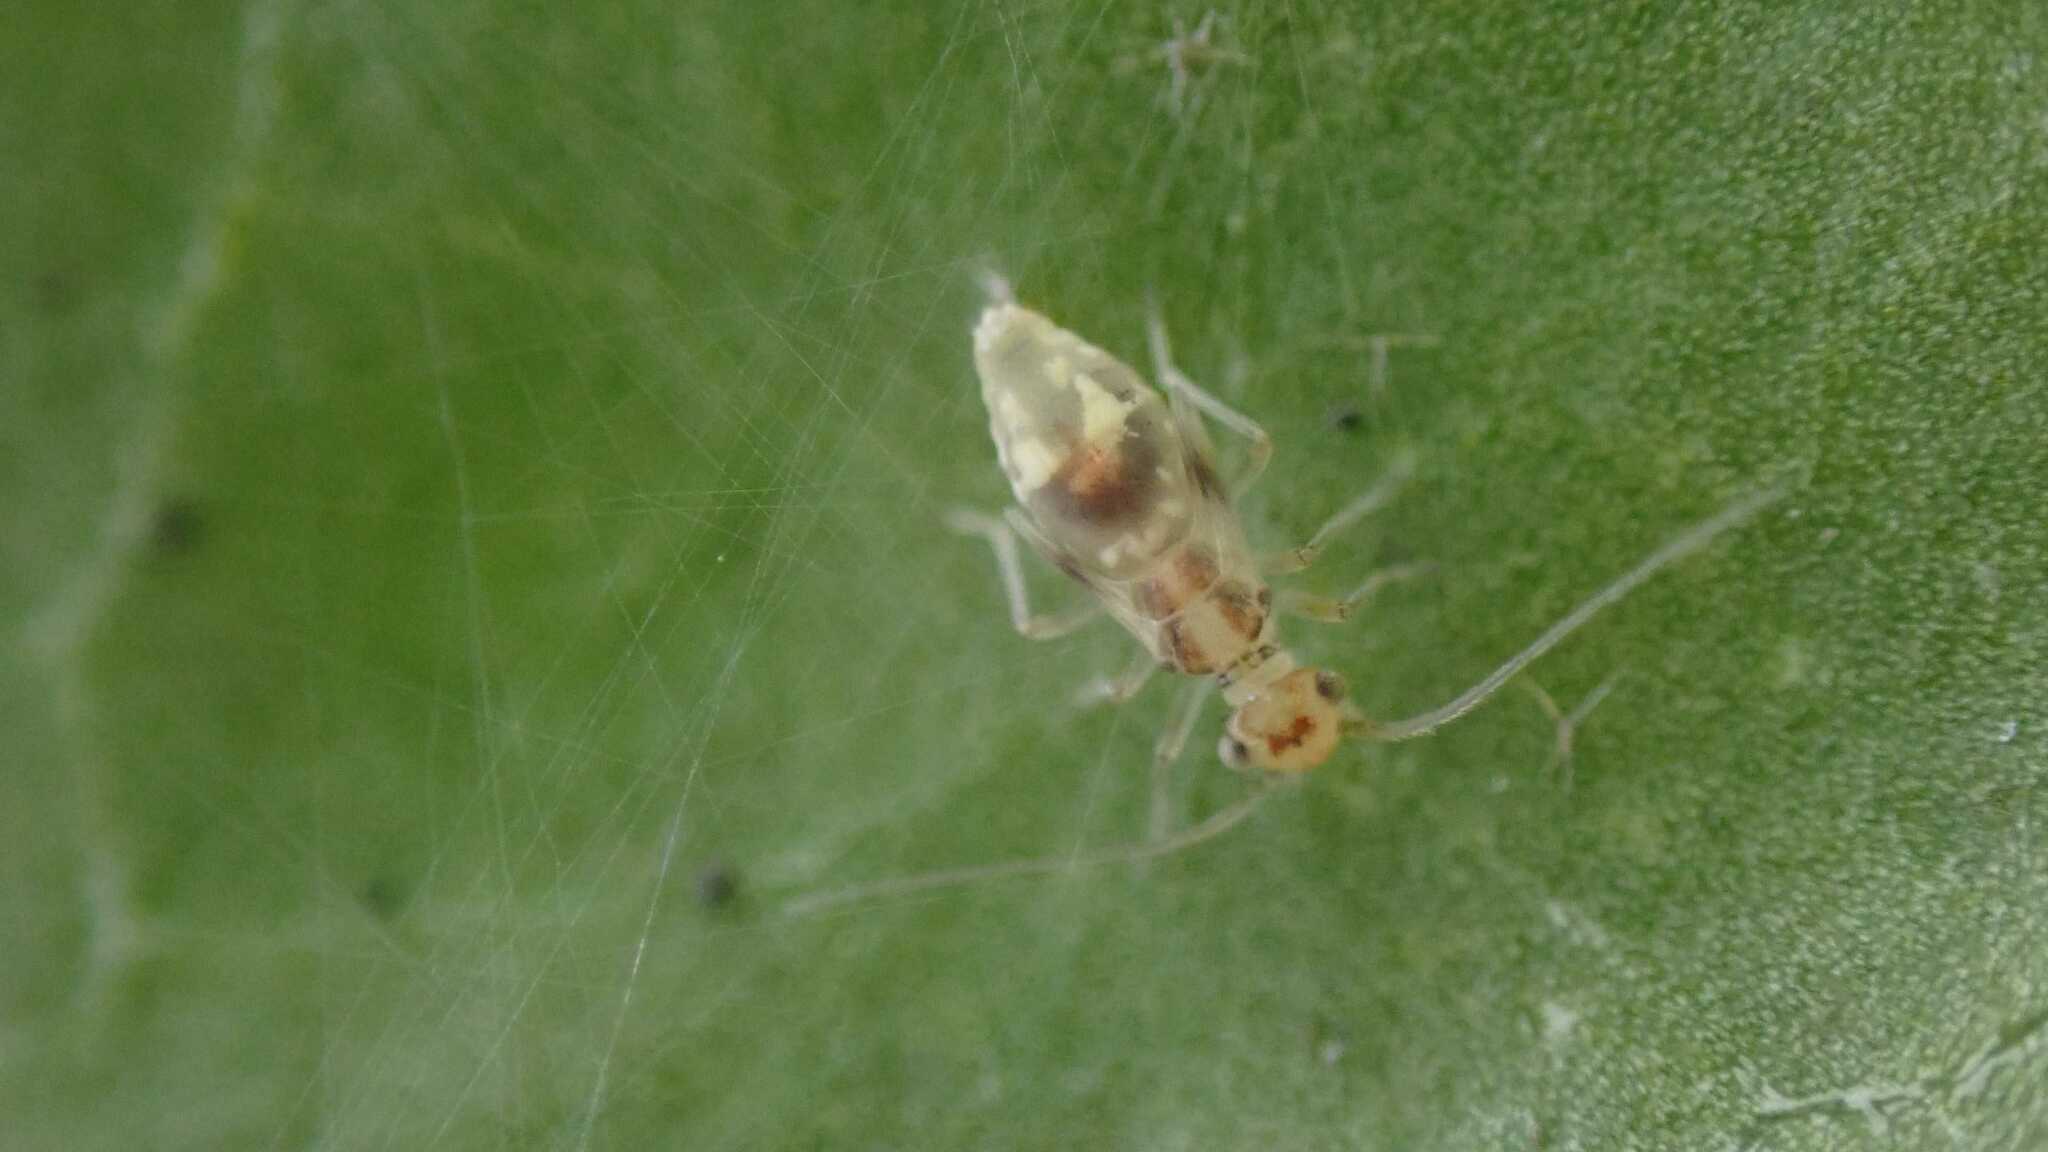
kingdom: Animalia
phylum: Arthropoda
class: Insecta
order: Psocodea
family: Stenopsocidae
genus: Graphopsocus
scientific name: Graphopsocus cruciatus
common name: Lizard bark louse
